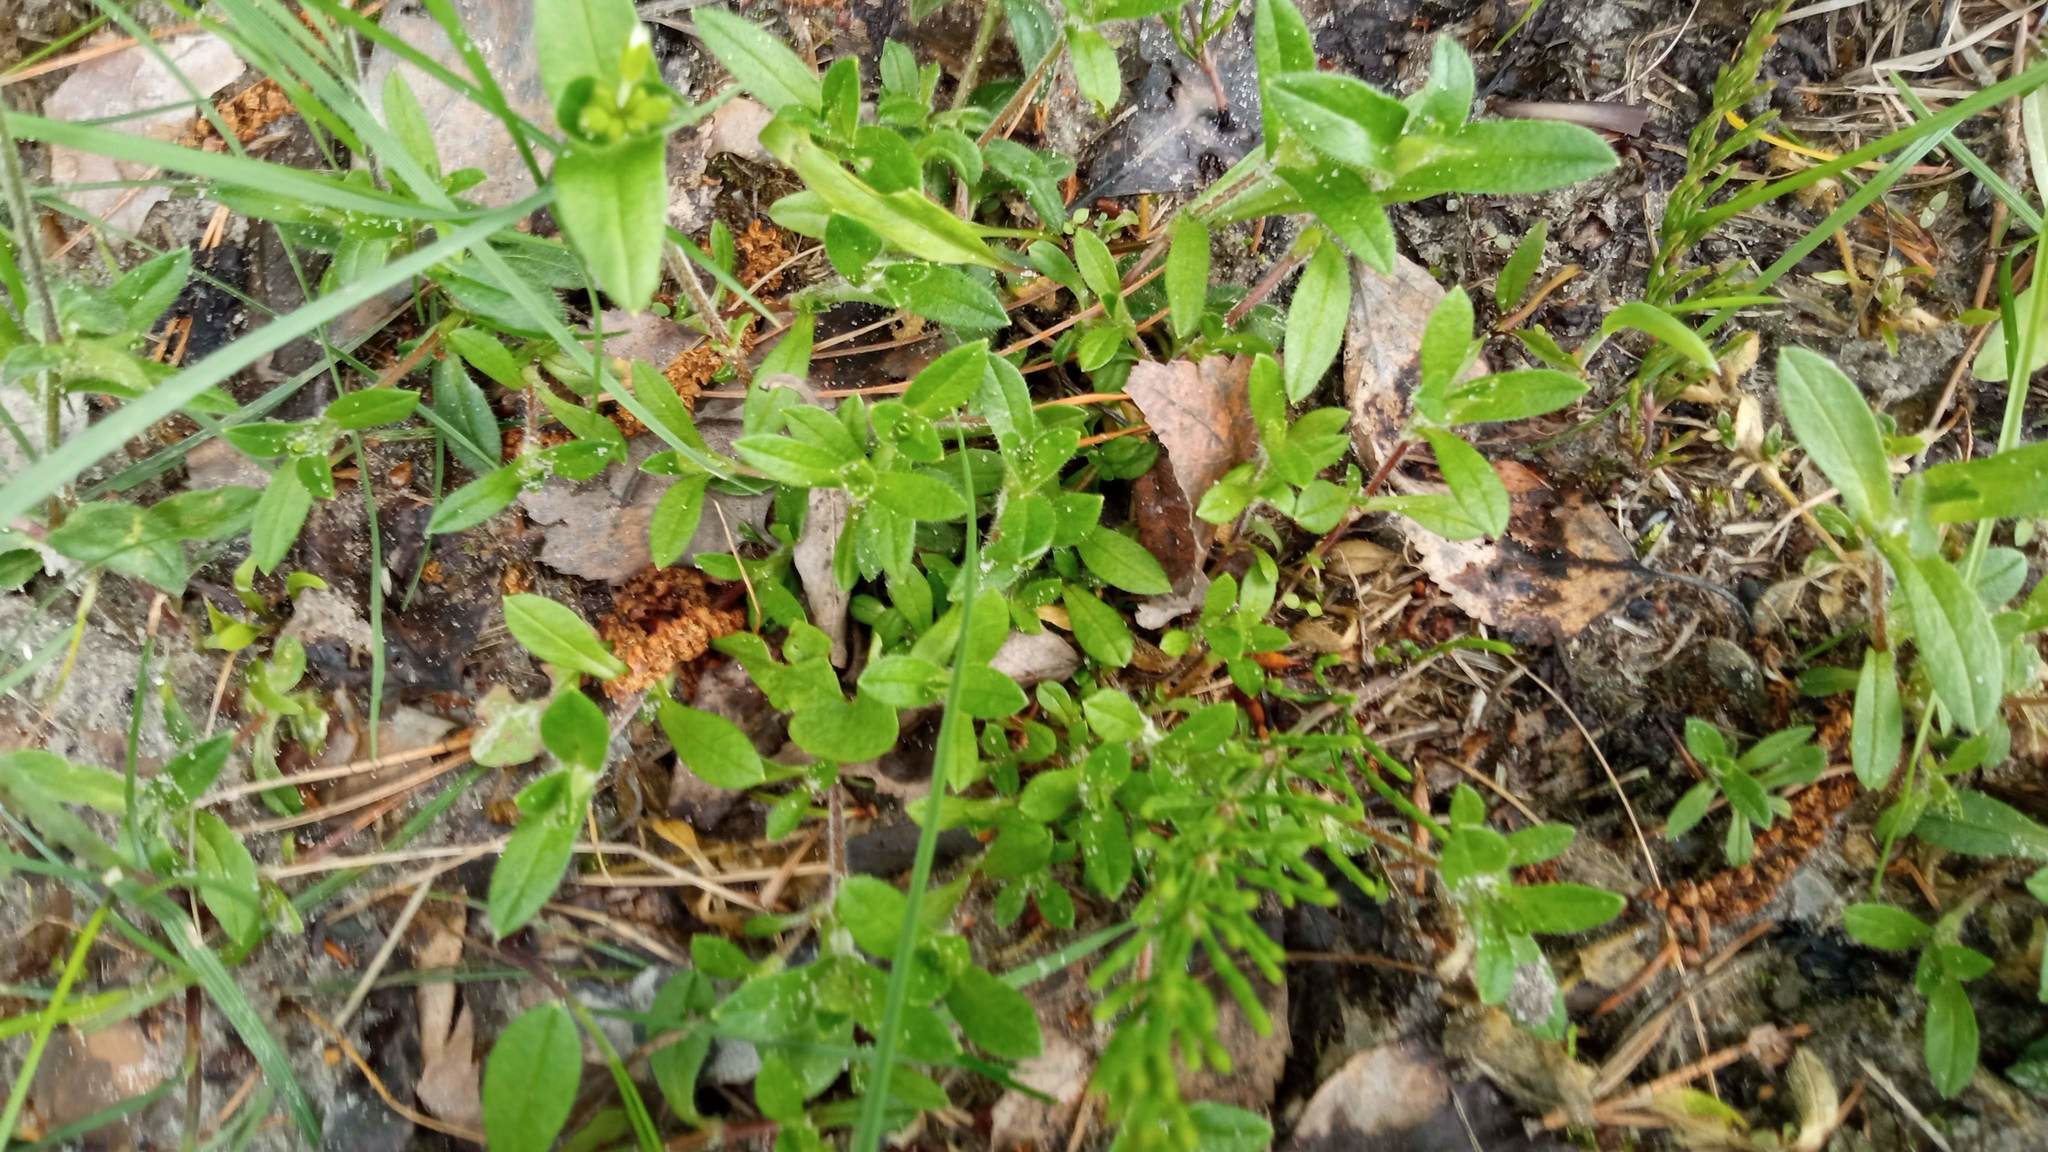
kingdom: Plantae
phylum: Tracheophyta
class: Magnoliopsida
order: Caryophyllales
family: Caryophyllaceae
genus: Cerastium
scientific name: Cerastium holosteoides
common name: Big chickweed
